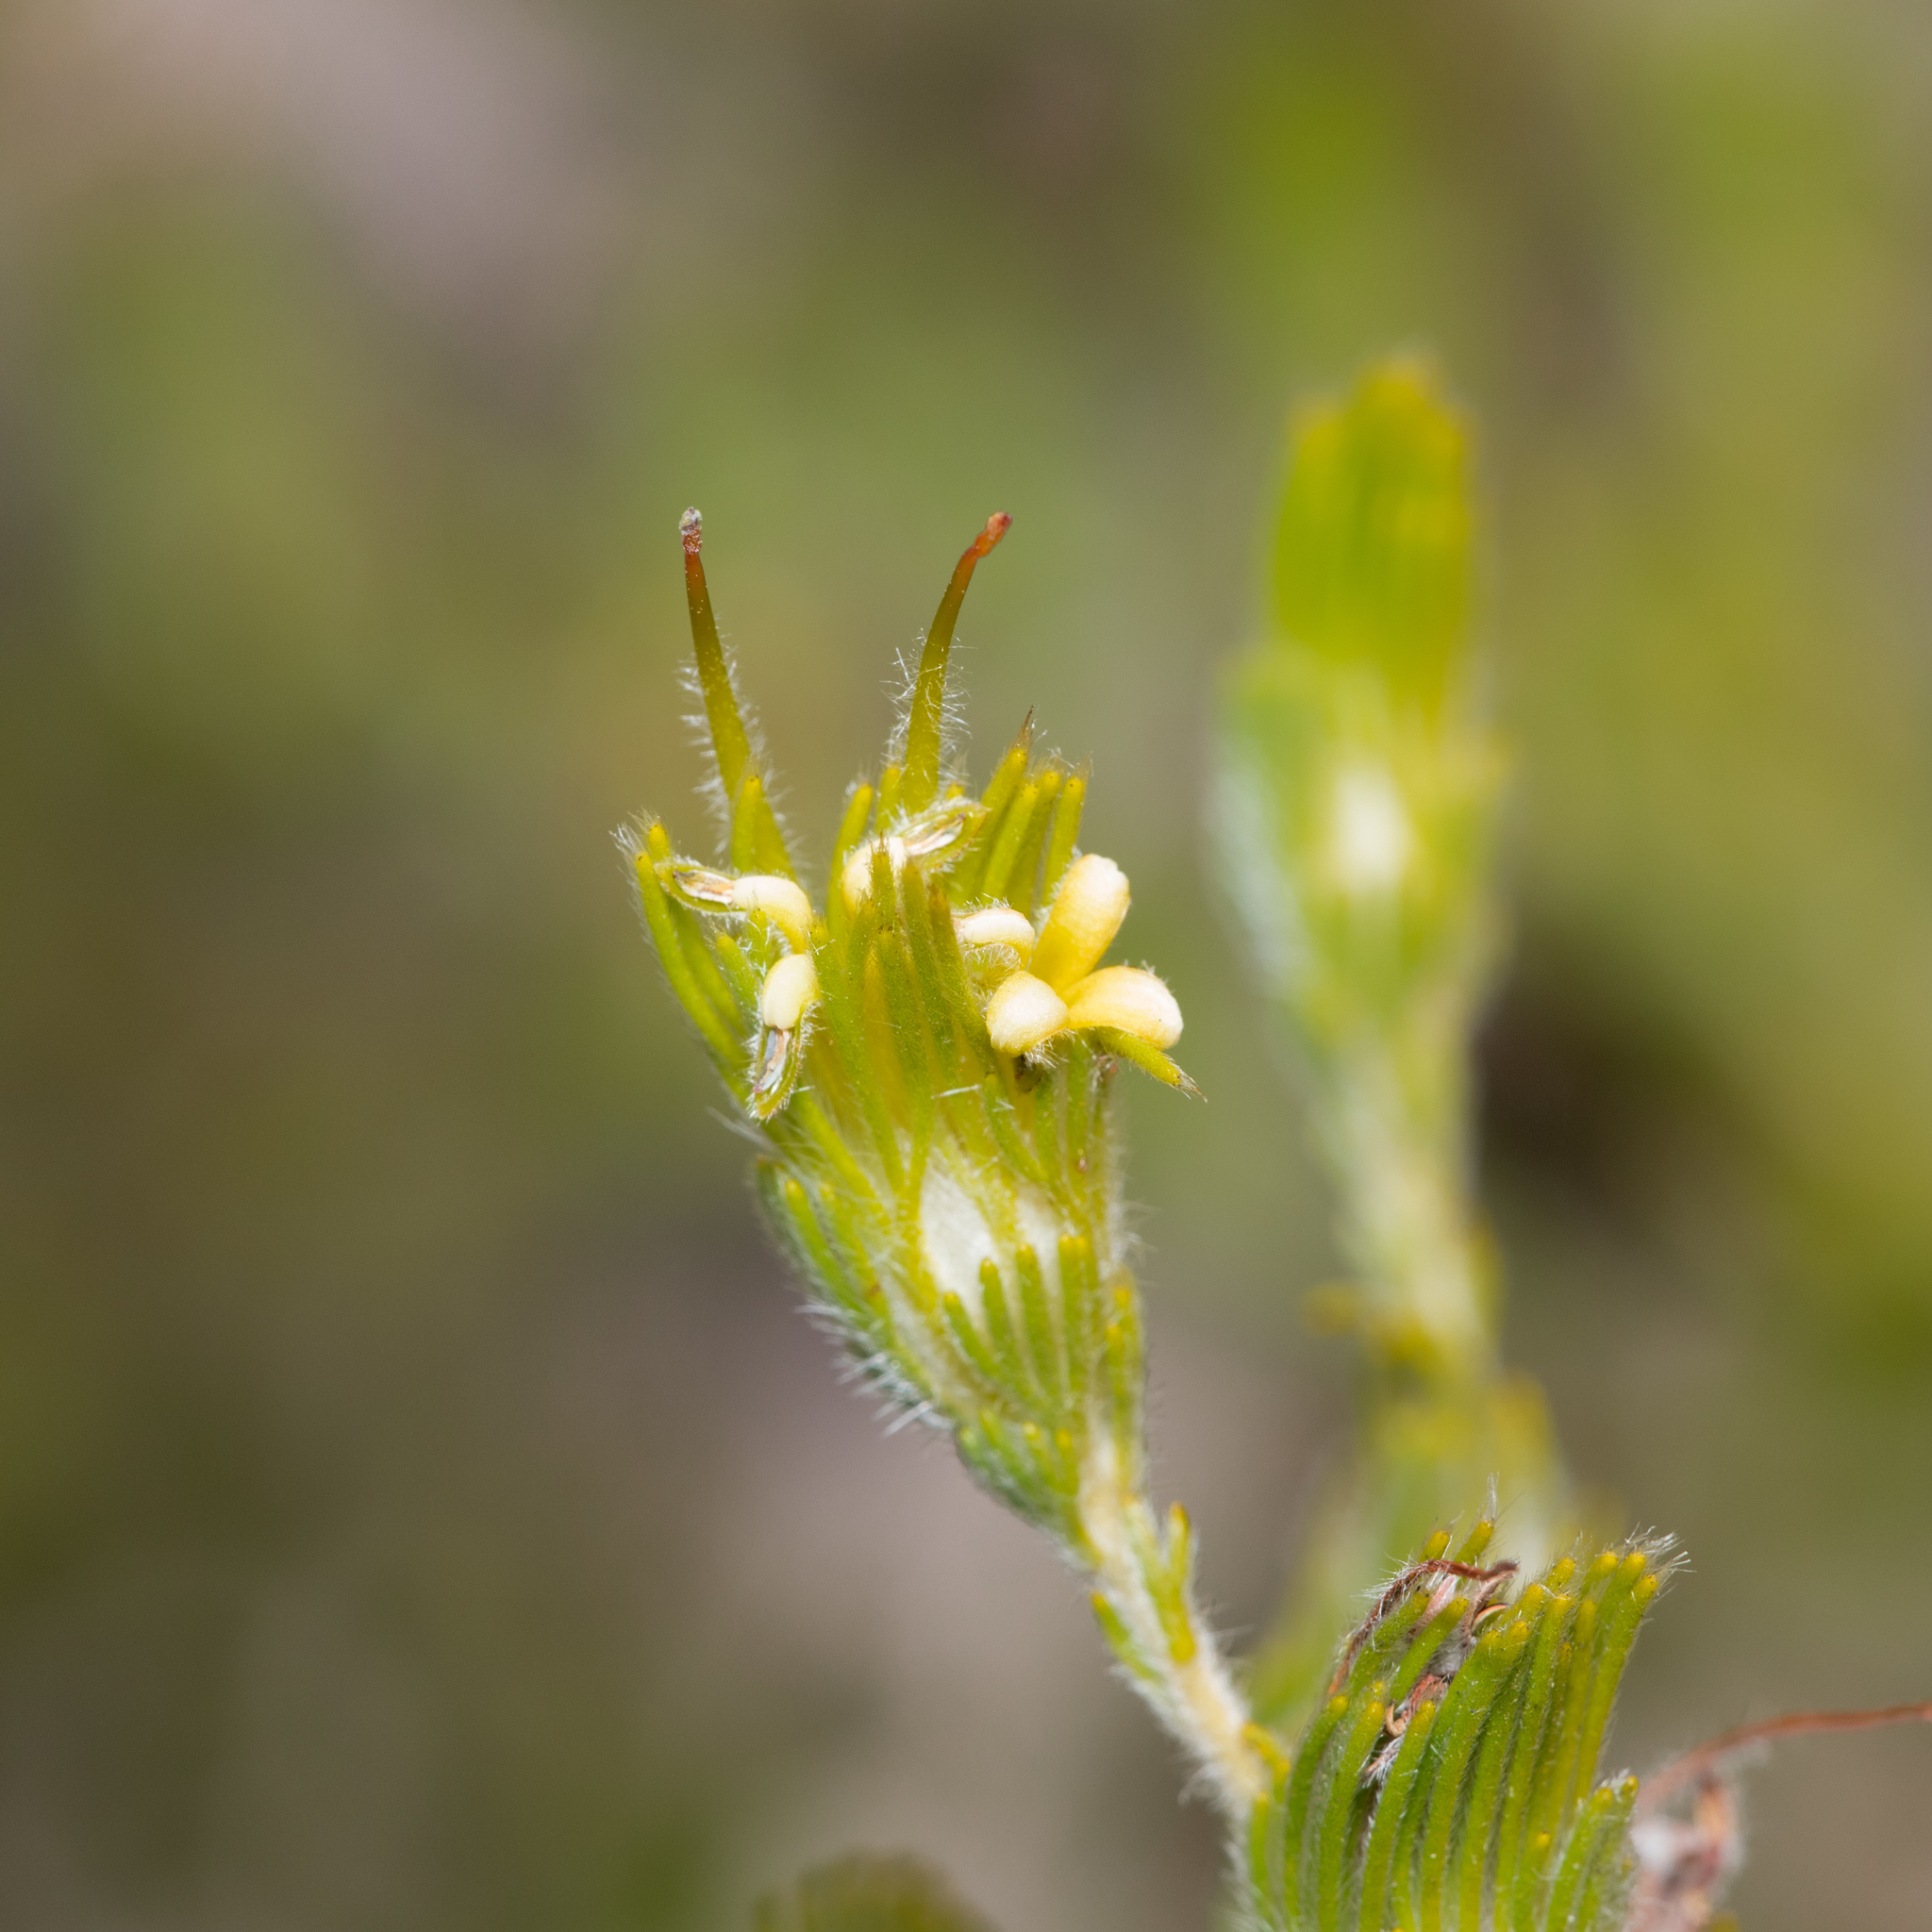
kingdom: Plantae
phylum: Tracheophyta
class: Magnoliopsida
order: Proteales
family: Proteaceae
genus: Adenanthos
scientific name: Adenanthos terminalis
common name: Yellow gland-flower
